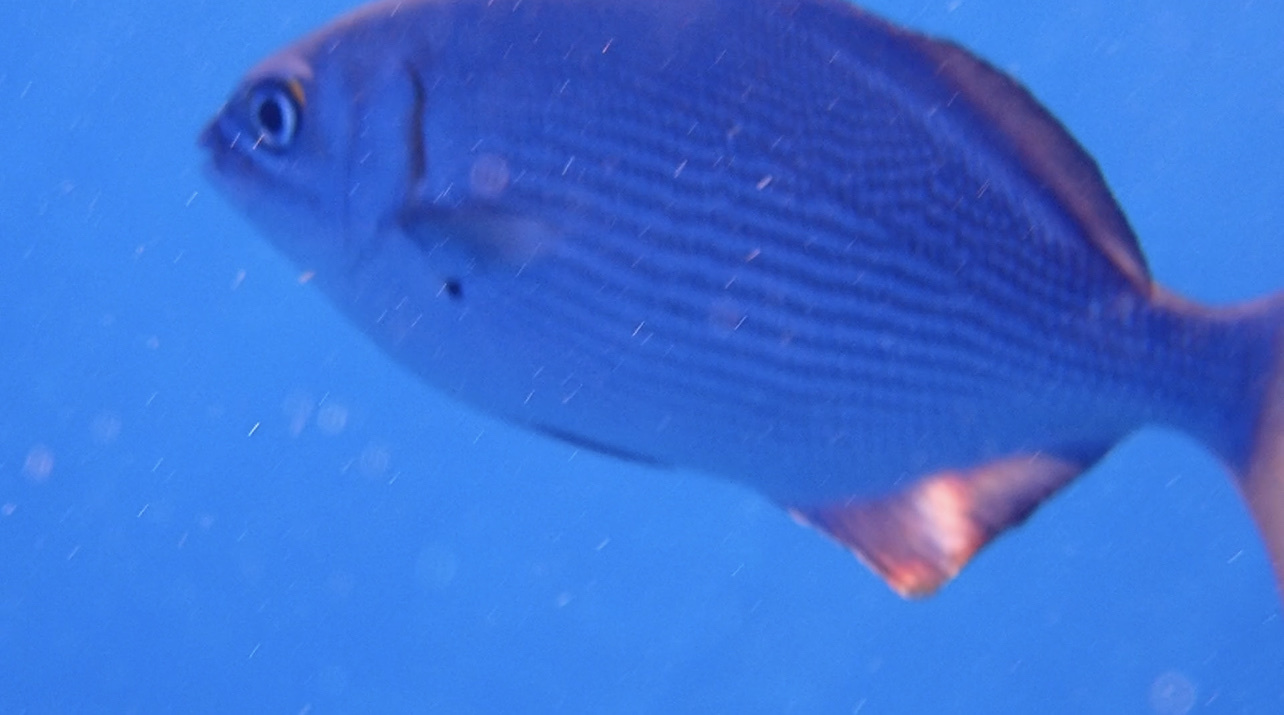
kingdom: Animalia
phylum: Chordata
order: Perciformes
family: Kyphosidae
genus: Kyphosus
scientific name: Kyphosus vaigiensis
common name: Brassy chub
